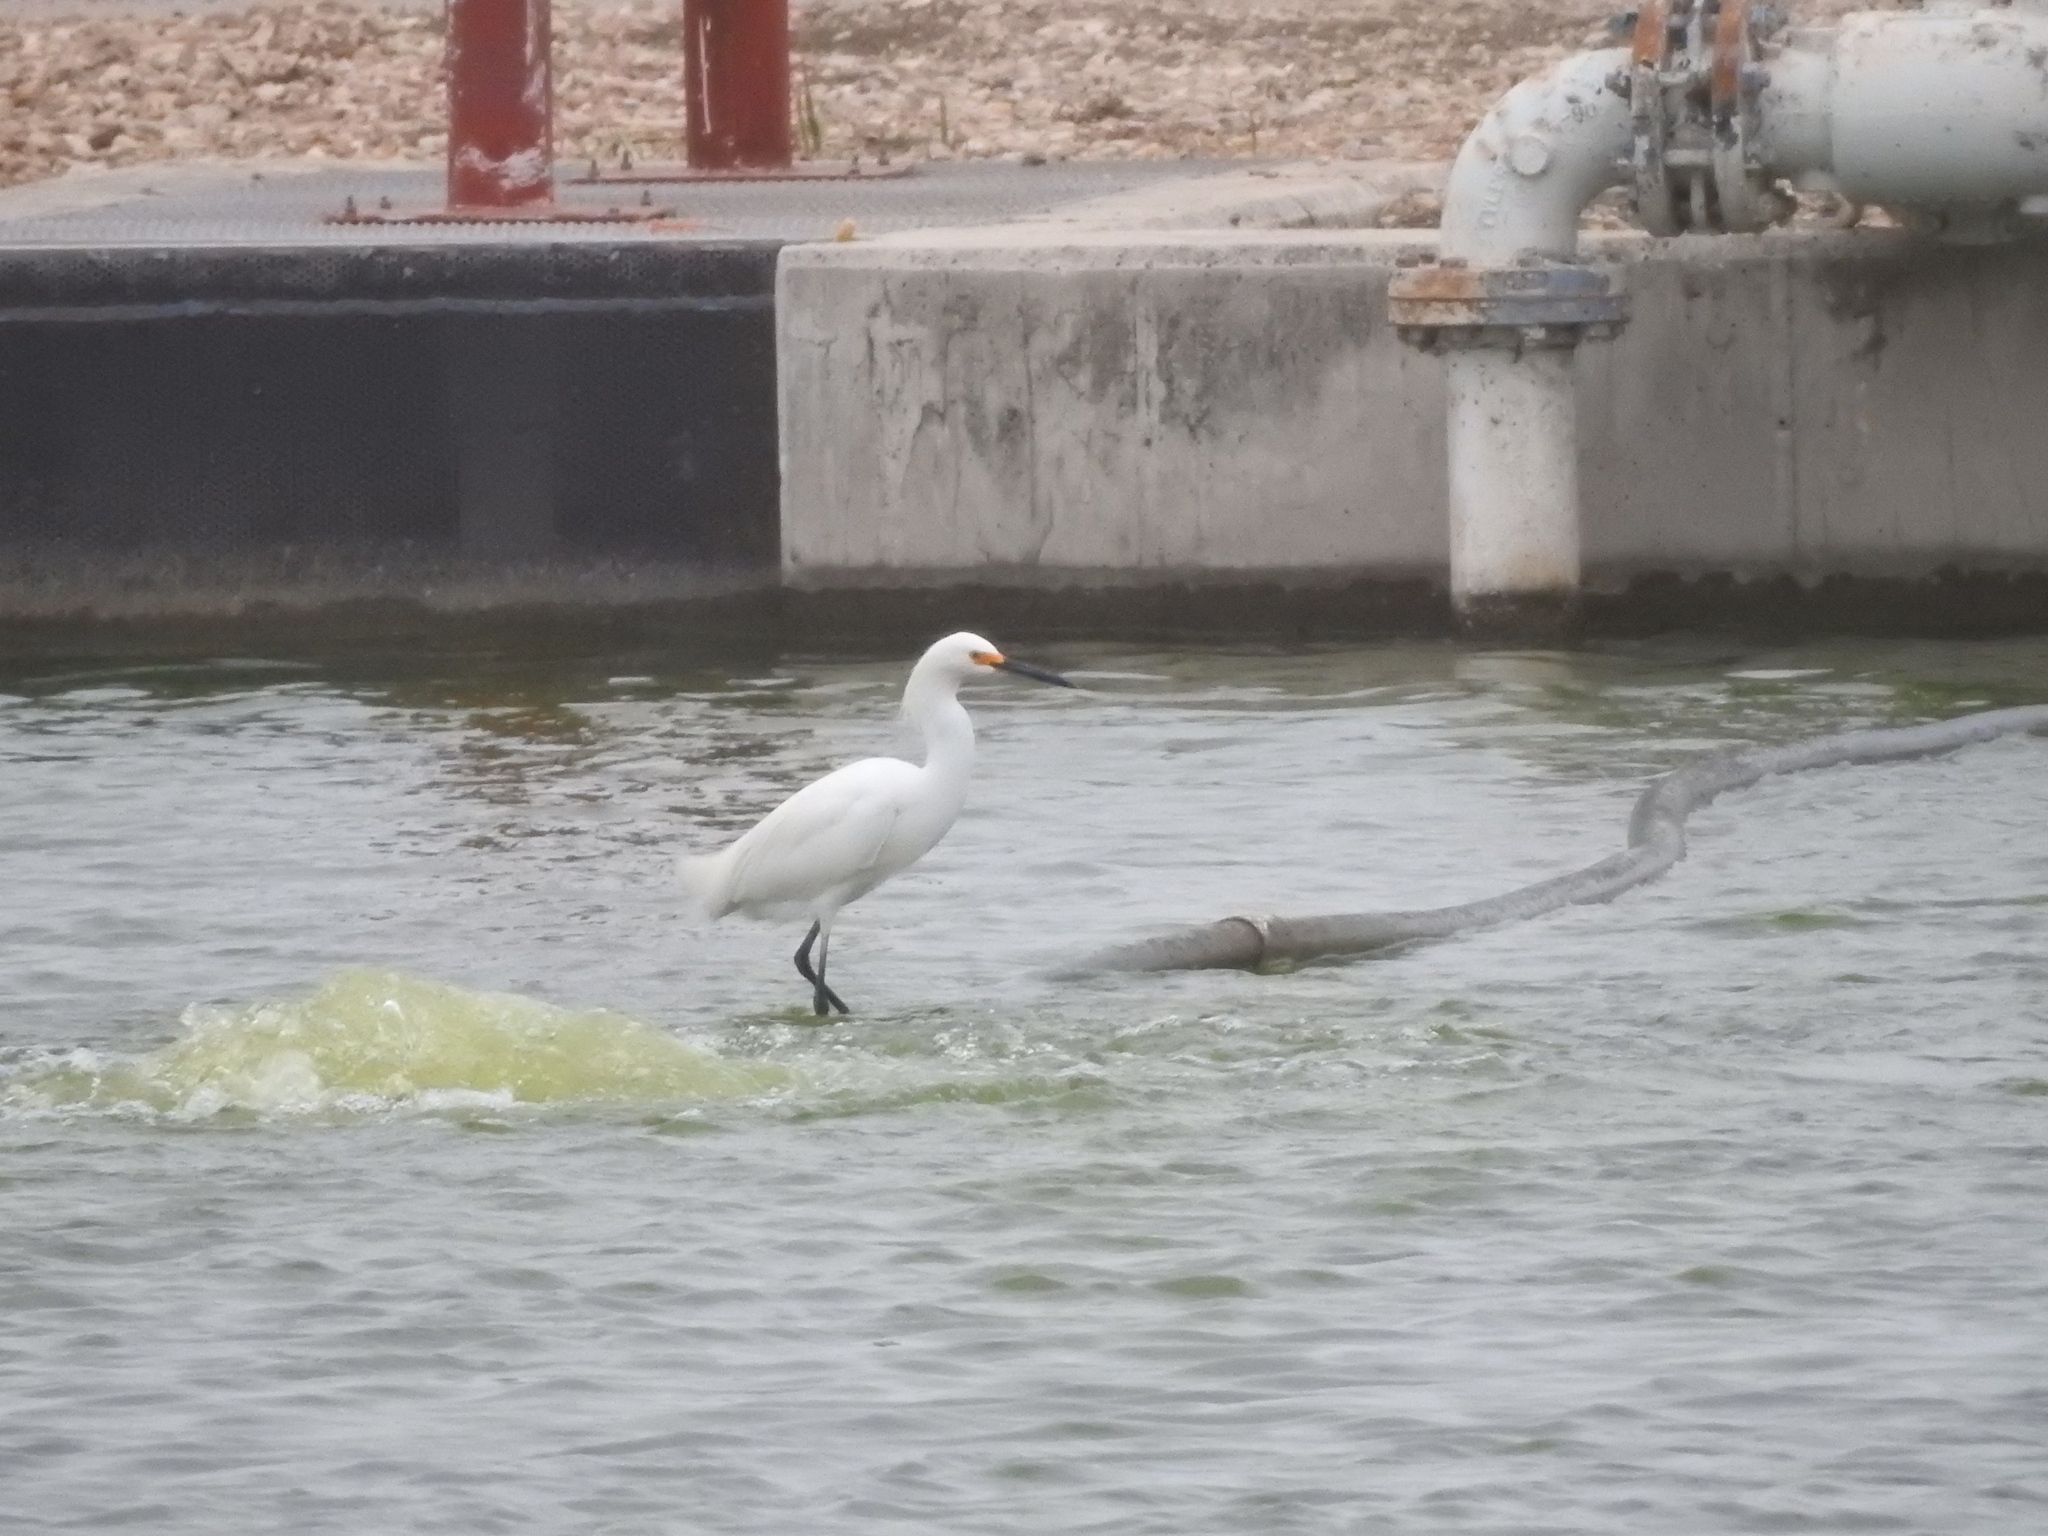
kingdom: Animalia
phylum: Chordata
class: Aves
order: Pelecaniformes
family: Ardeidae
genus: Egretta
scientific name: Egretta thula
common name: Snowy egret
